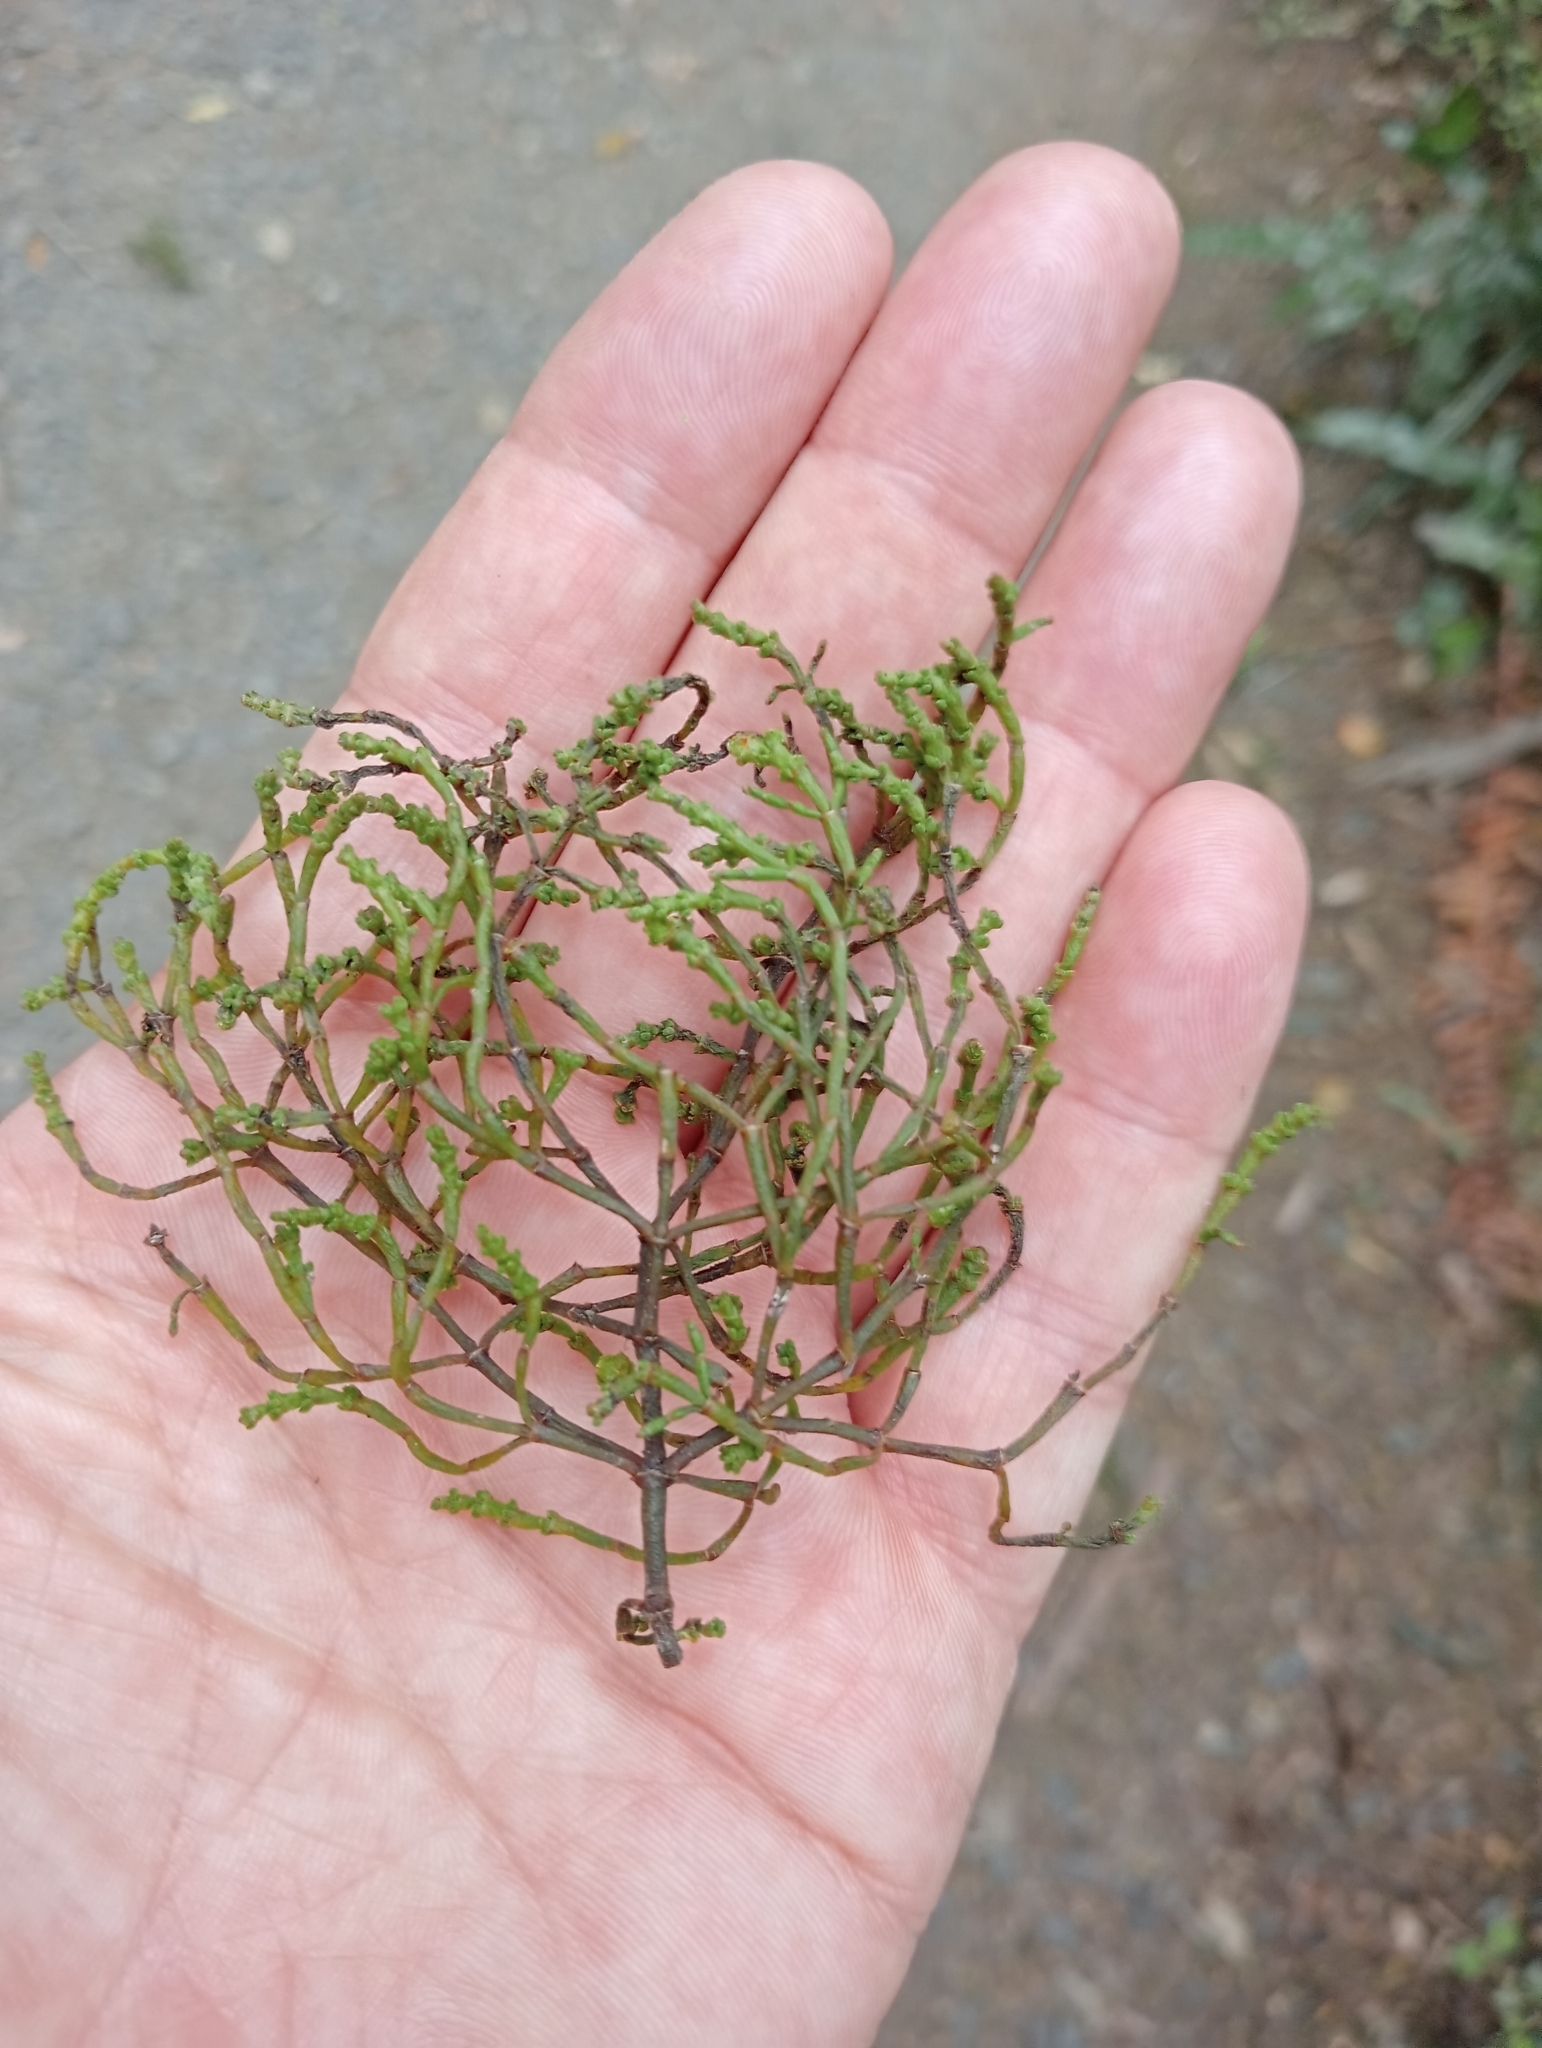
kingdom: Plantae
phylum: Tracheophyta
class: Magnoliopsida
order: Santalales
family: Viscaceae
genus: Korthalsella
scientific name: Korthalsella salicornioides
